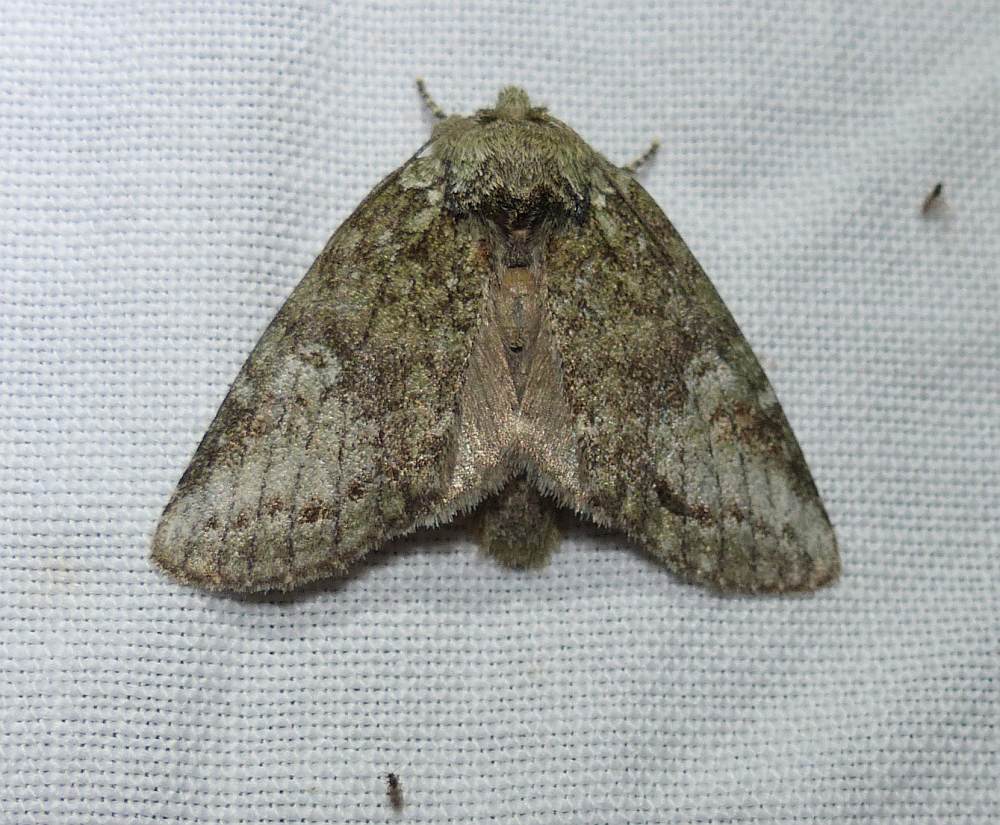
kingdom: Animalia
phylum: Arthropoda
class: Insecta
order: Lepidoptera
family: Notodontidae
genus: Disphragis
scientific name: Disphragis Cecrita guttivitta
